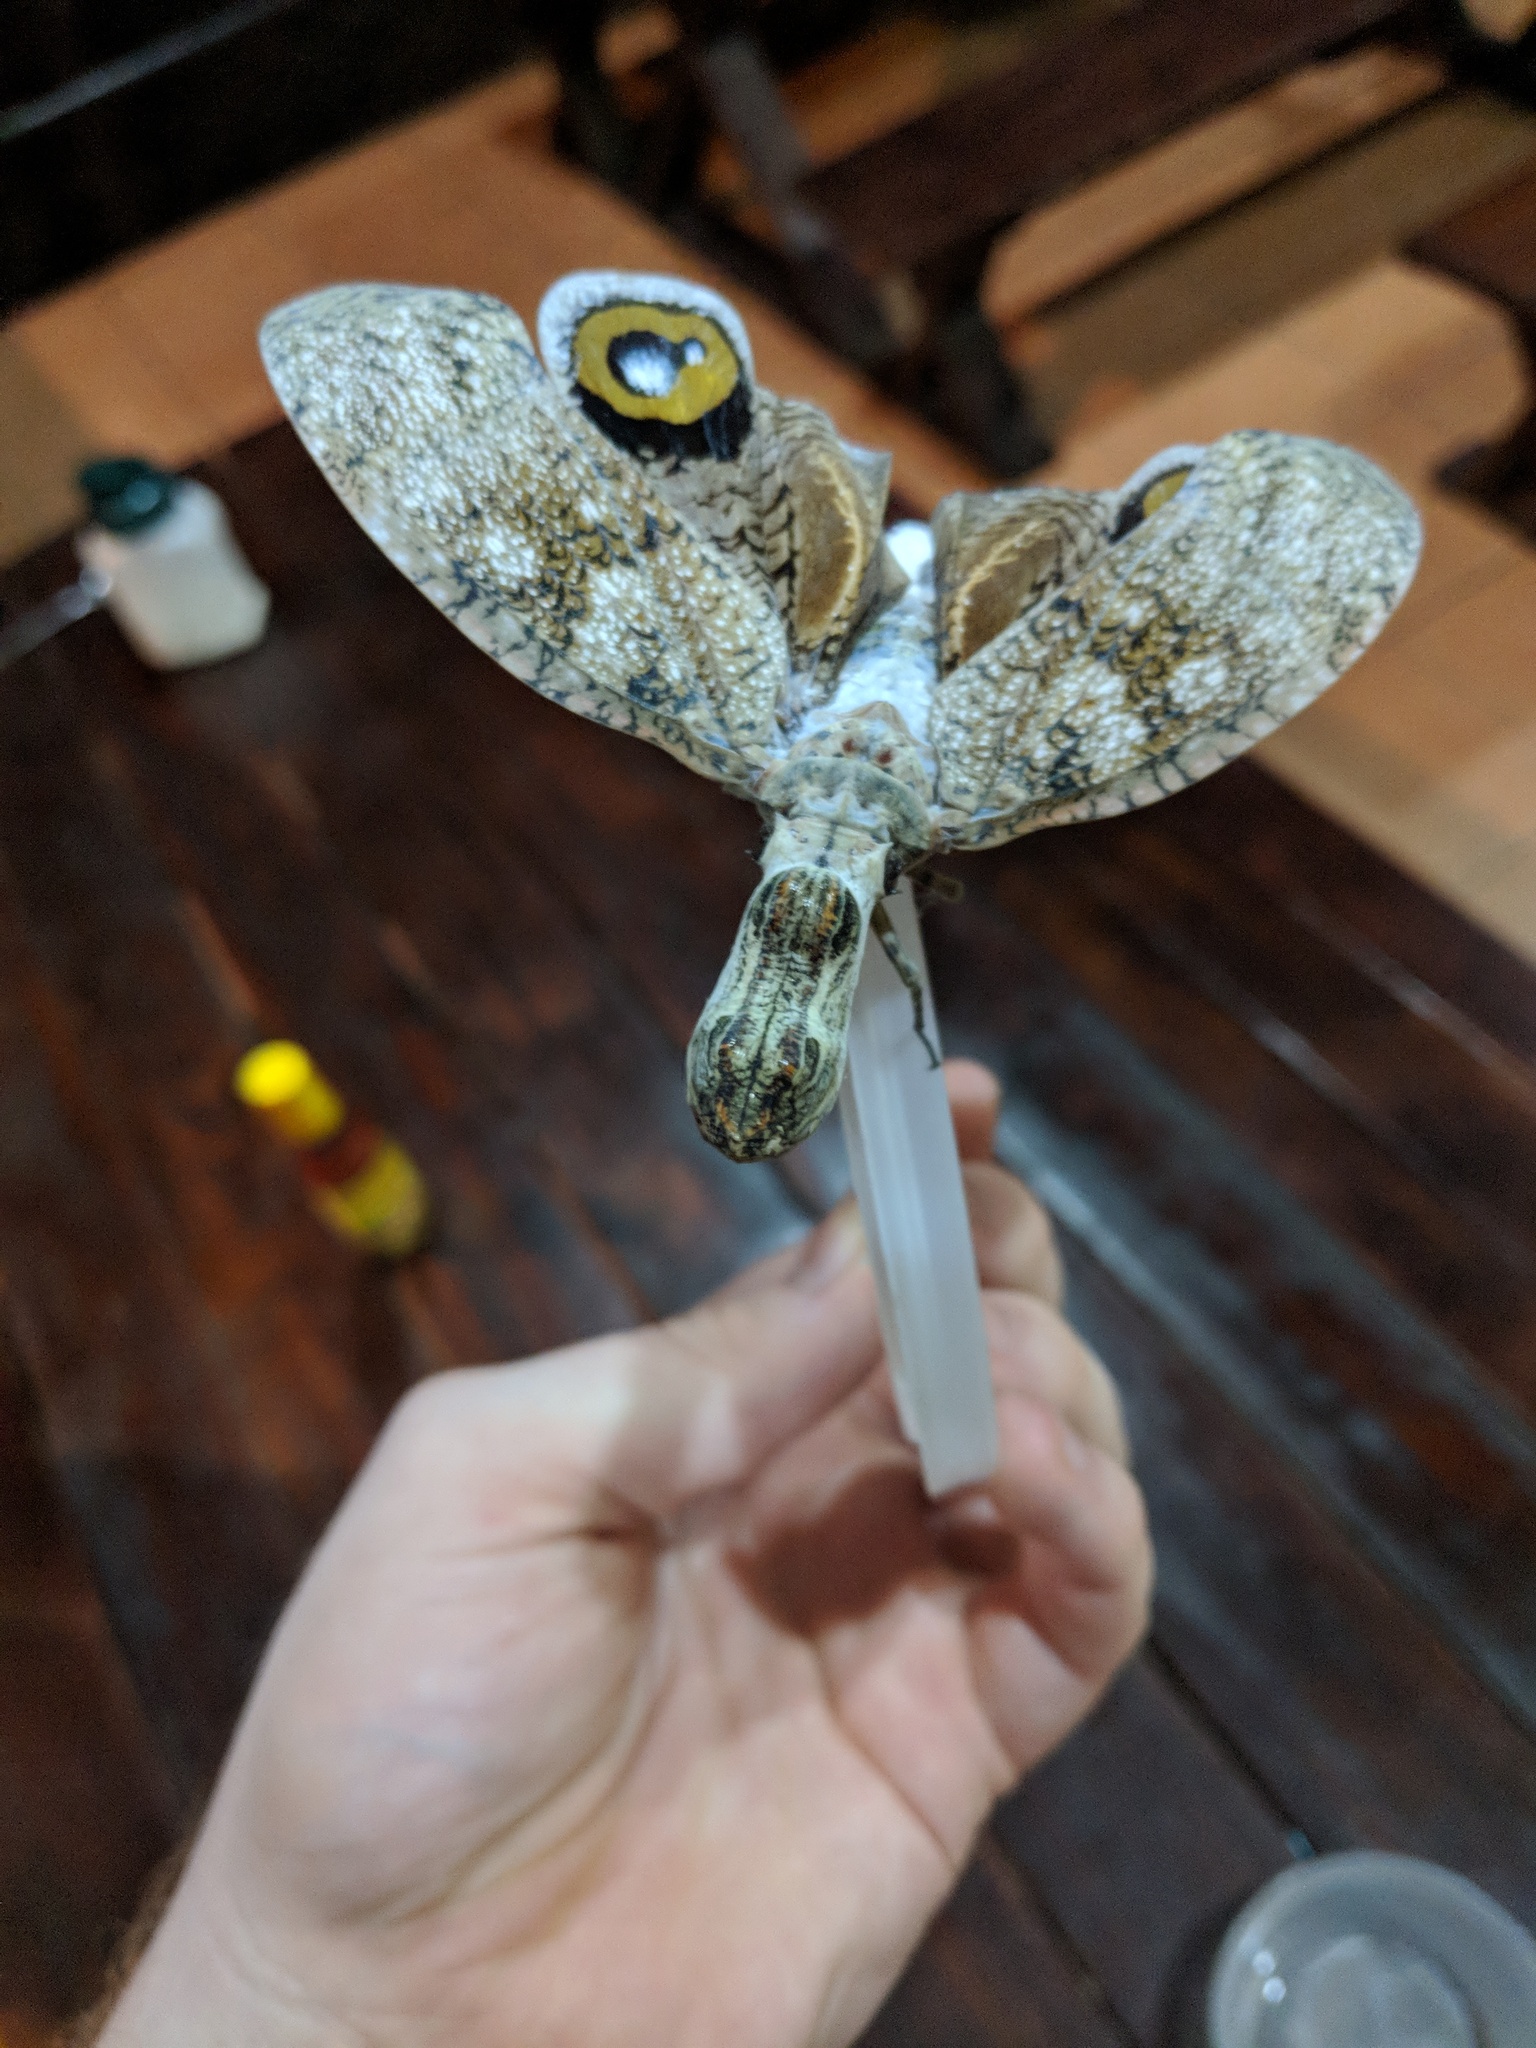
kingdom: Animalia
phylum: Arthropoda
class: Insecta
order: Hemiptera
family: Fulgoridae
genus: Fulgora
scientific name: Fulgora laternaria
